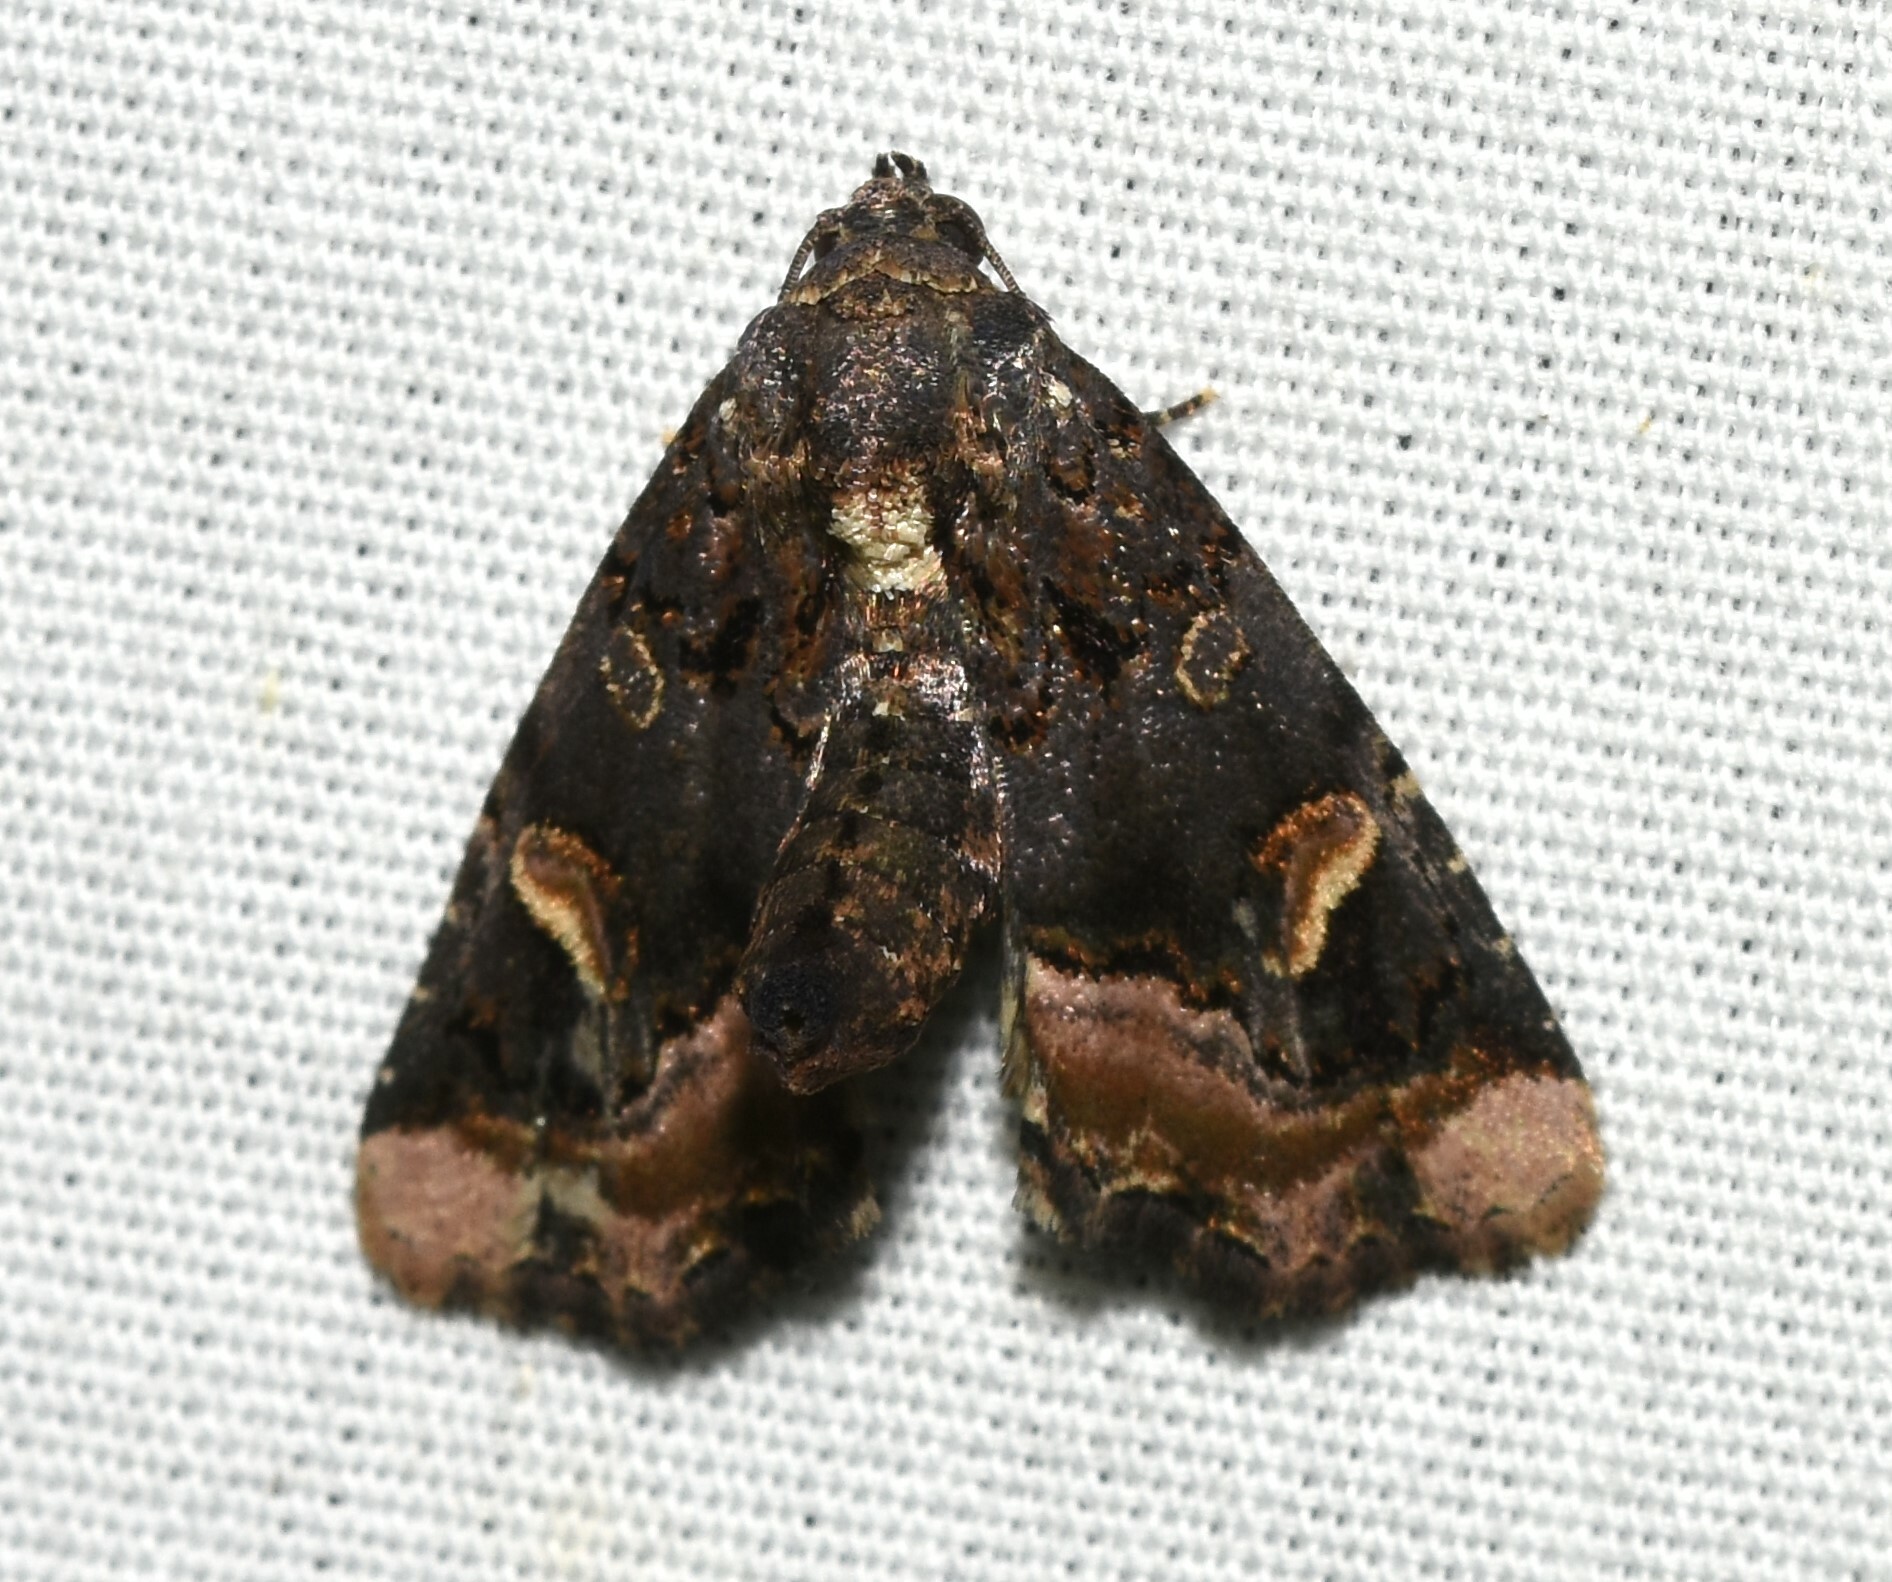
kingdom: Animalia
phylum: Arthropoda
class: Insecta
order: Lepidoptera
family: Noctuidae
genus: Homophoberia
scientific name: Homophoberia apicosa
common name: Black wedge-spot
